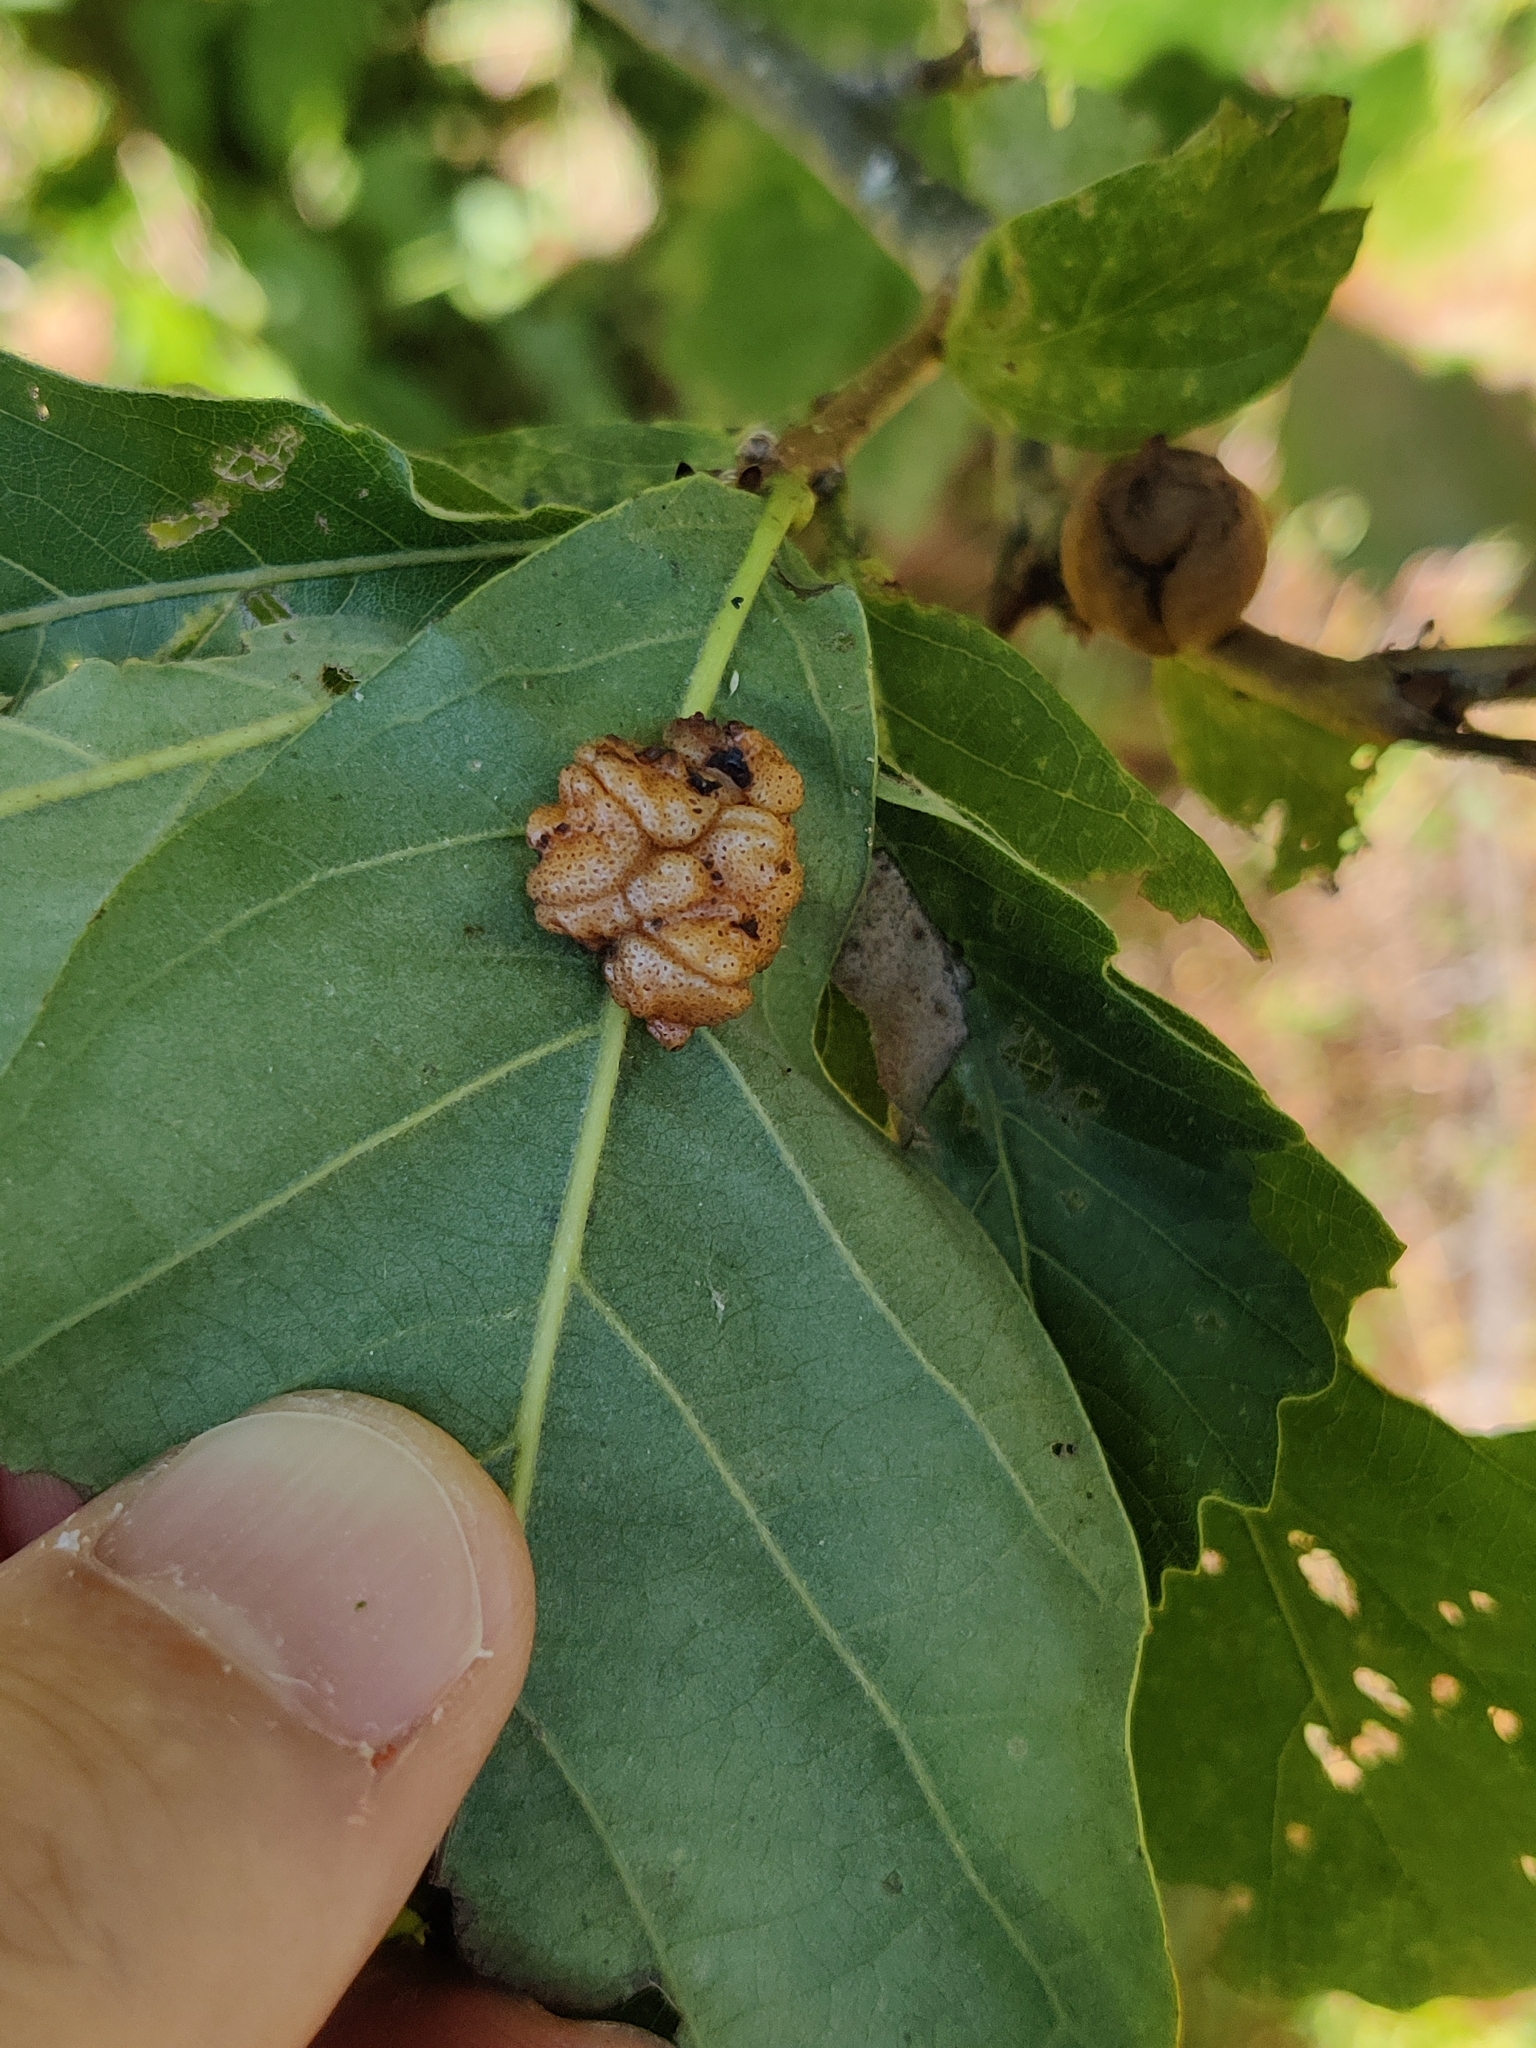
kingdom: Animalia
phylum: Arthropoda
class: Insecta
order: Hymenoptera
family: Cynipidae
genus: Andricus
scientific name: Andricus
